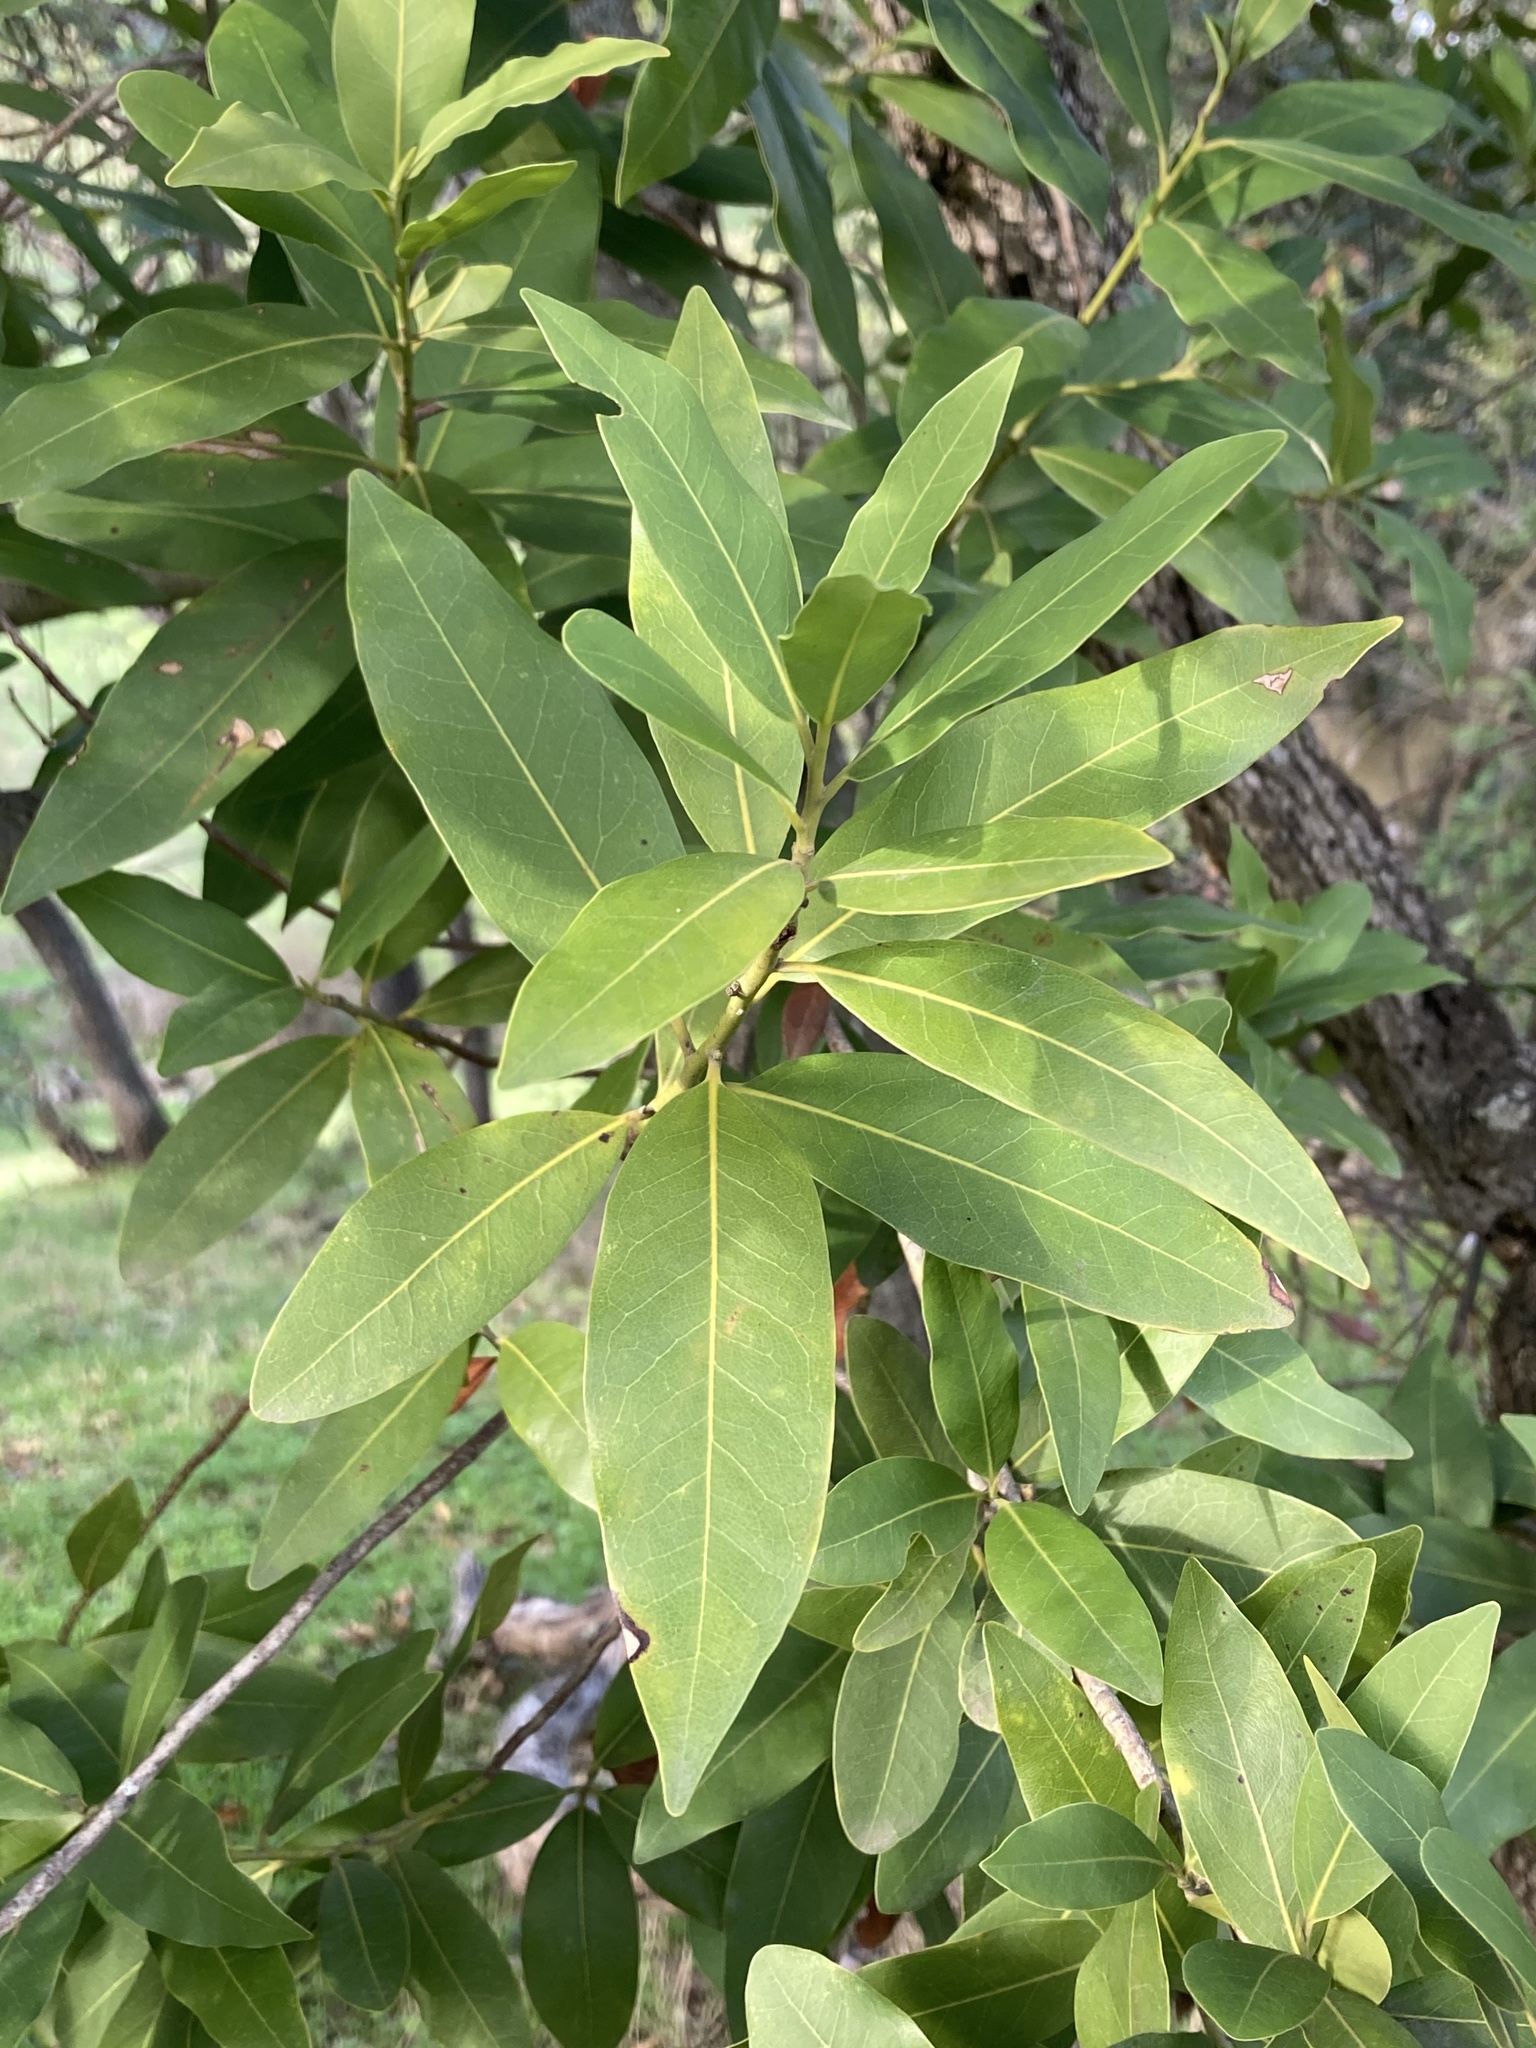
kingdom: Plantae
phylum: Tracheophyta
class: Magnoliopsida
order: Laurales
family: Lauraceae
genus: Umbellularia
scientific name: Umbellularia californica
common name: California bay
